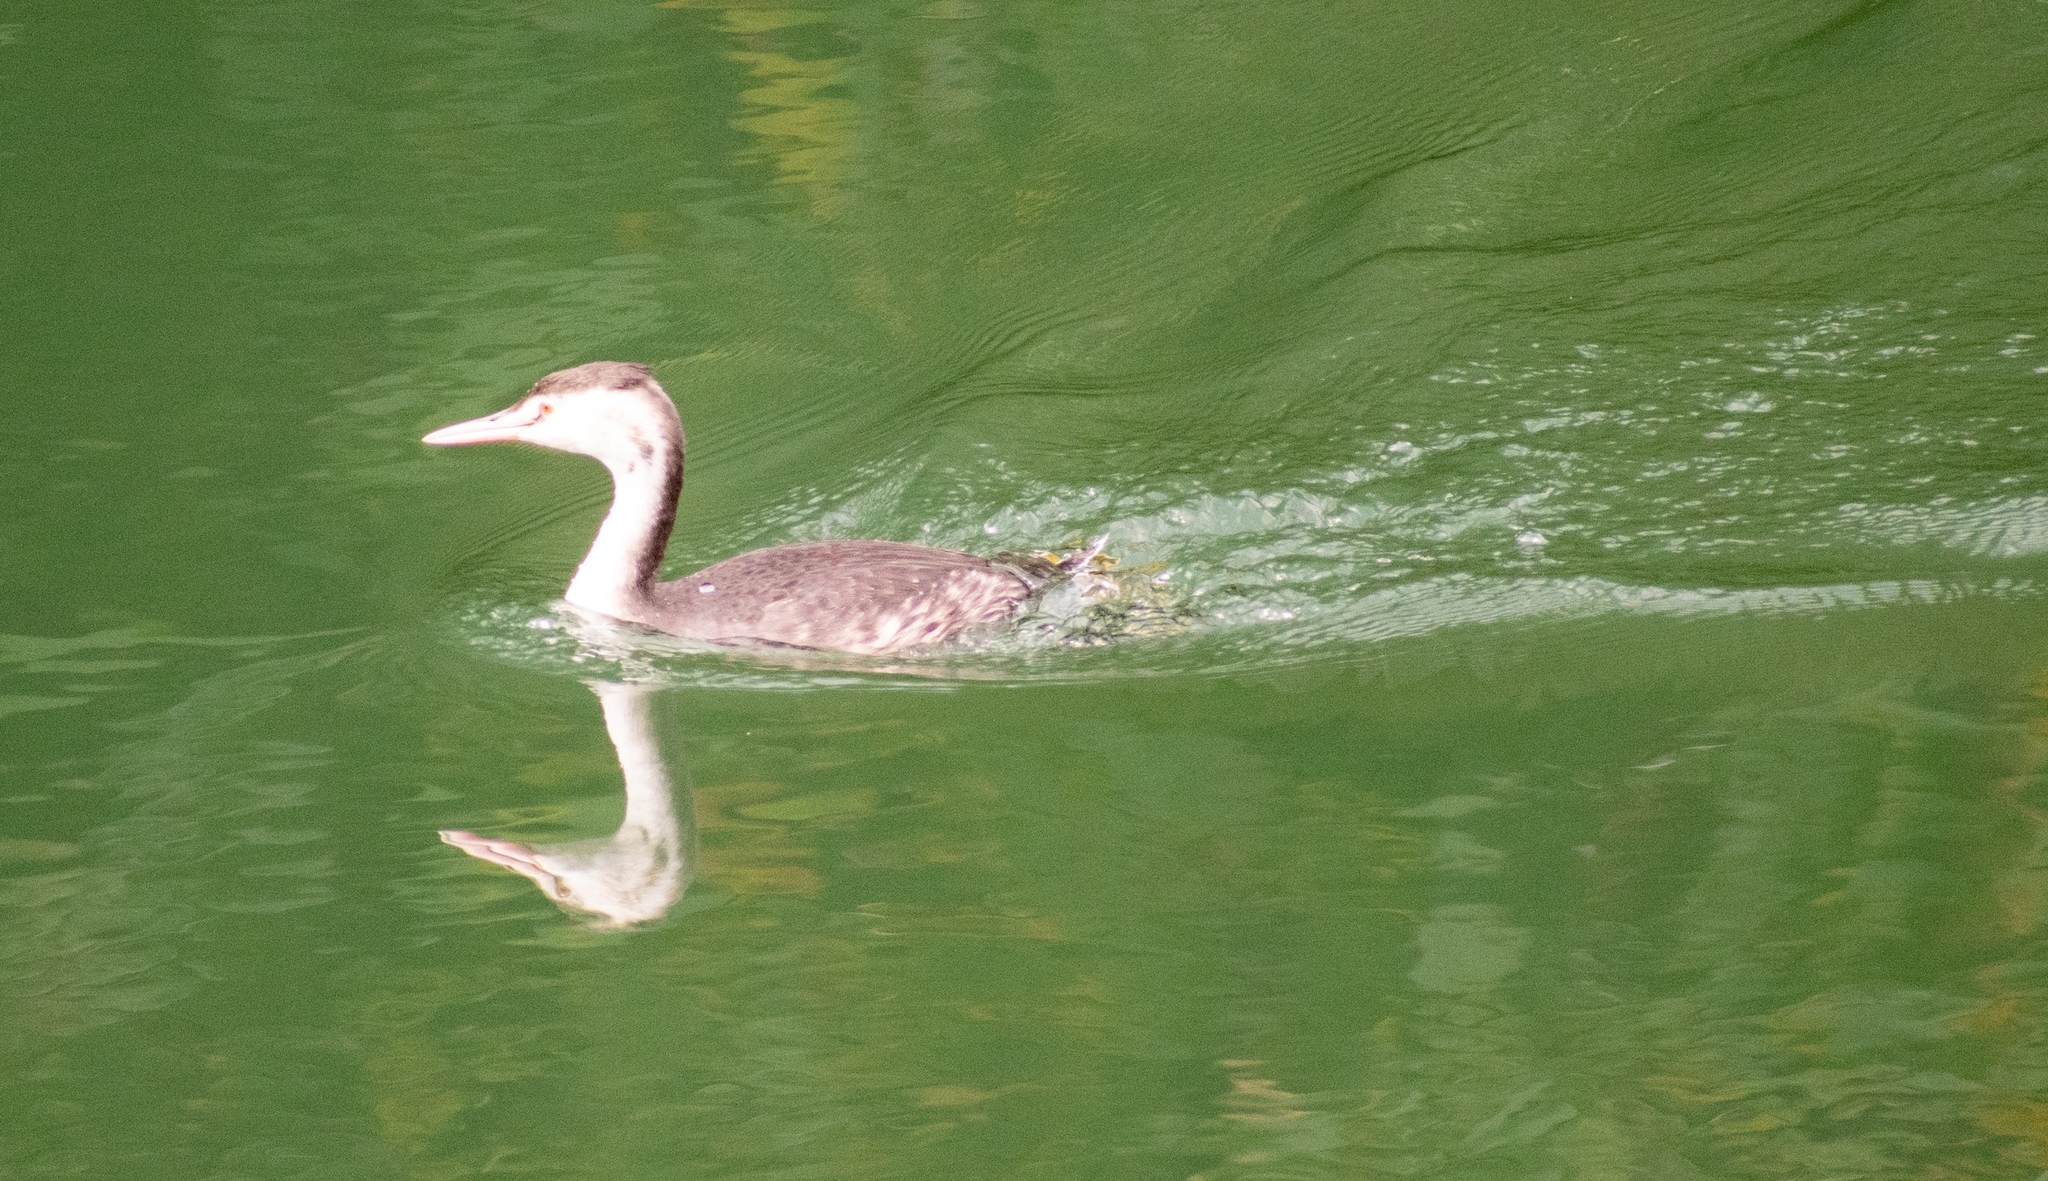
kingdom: Animalia
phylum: Chordata
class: Aves
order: Podicipediformes
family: Podicipedidae
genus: Podiceps
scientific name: Podiceps cristatus
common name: Great crested grebe
